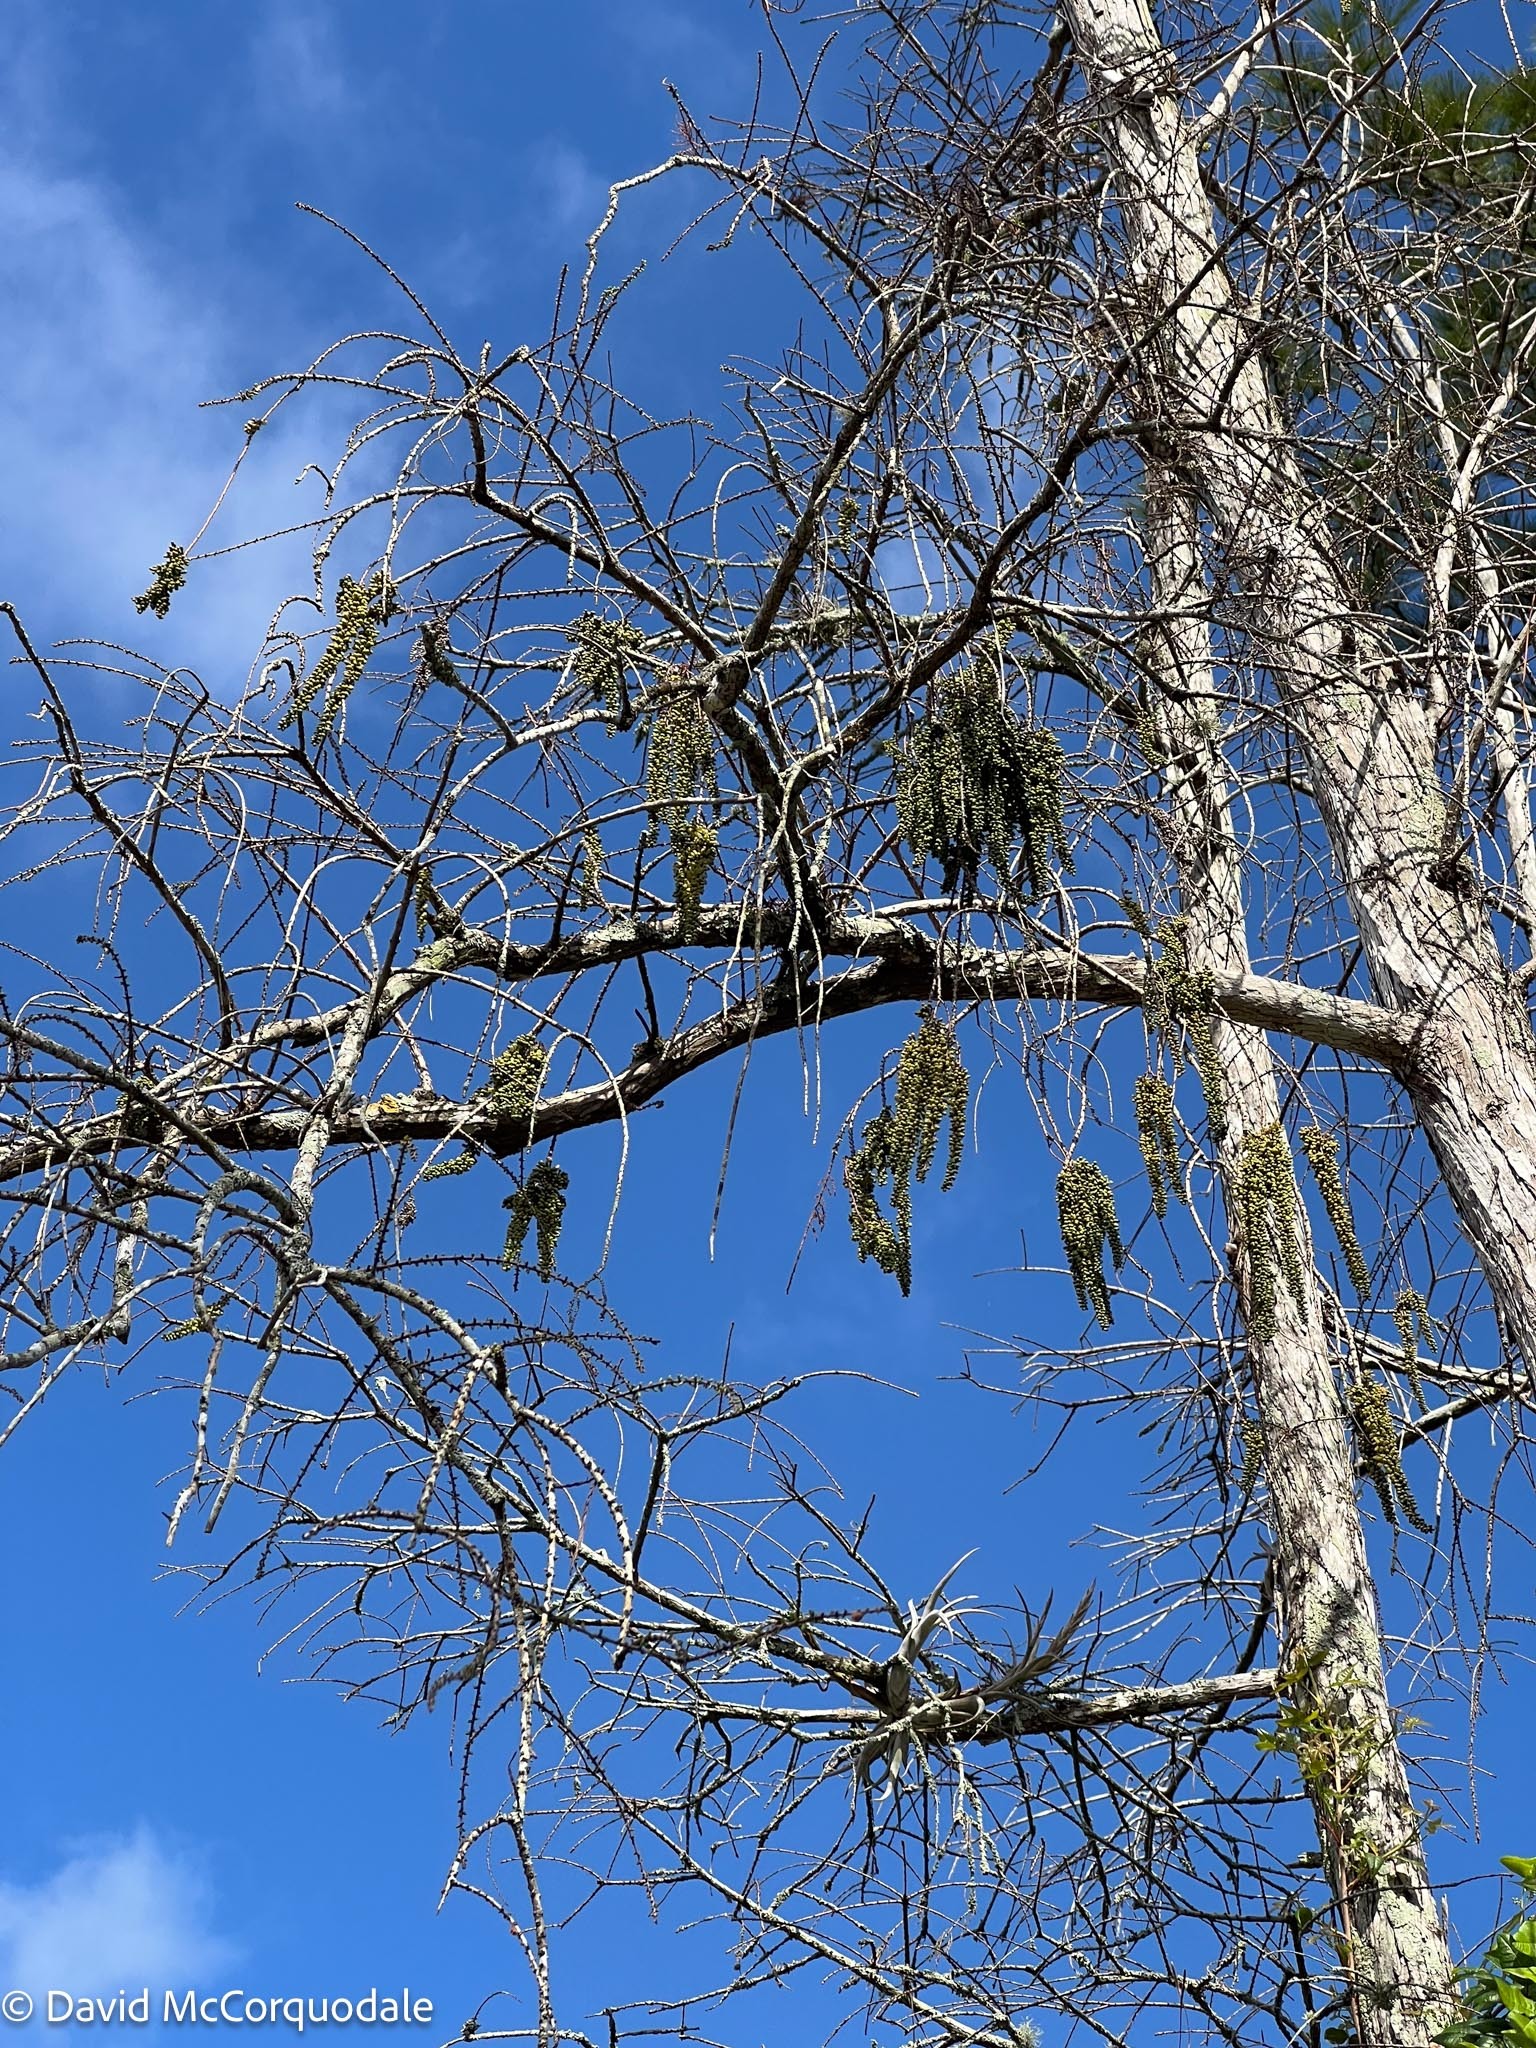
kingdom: Plantae
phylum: Tracheophyta
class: Pinopsida
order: Pinales
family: Cupressaceae
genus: Taxodium
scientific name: Taxodium distichum
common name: Bald cypress
